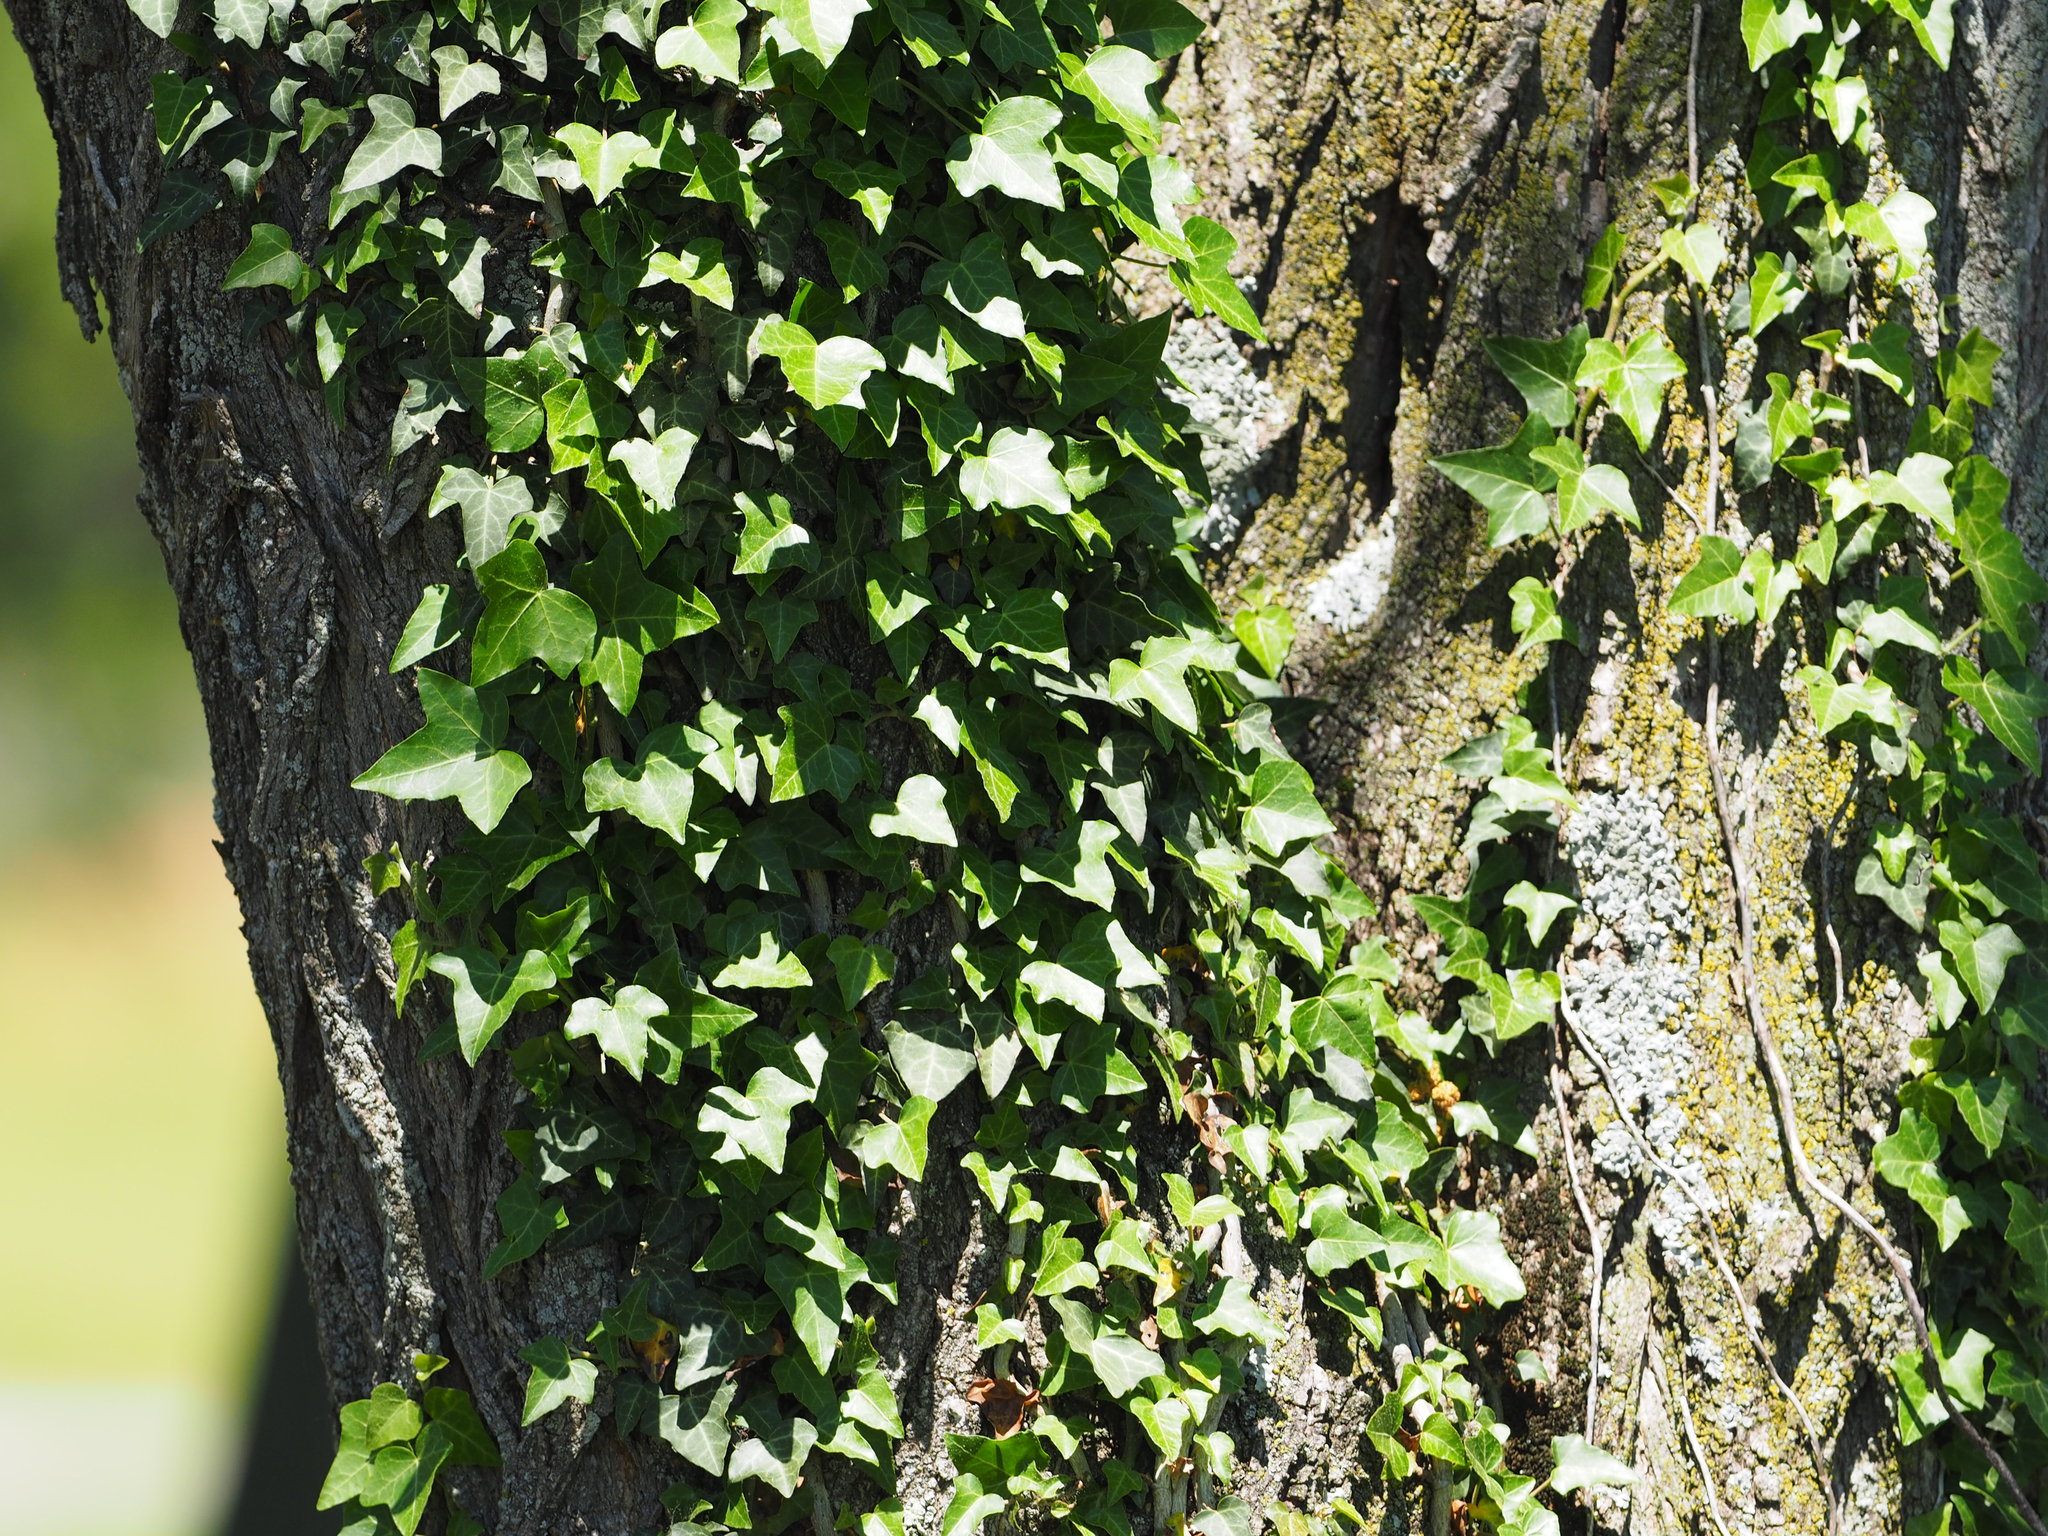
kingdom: Plantae
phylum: Tracheophyta
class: Magnoliopsida
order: Apiales
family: Araliaceae
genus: Hedera
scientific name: Hedera helix
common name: Ivy
